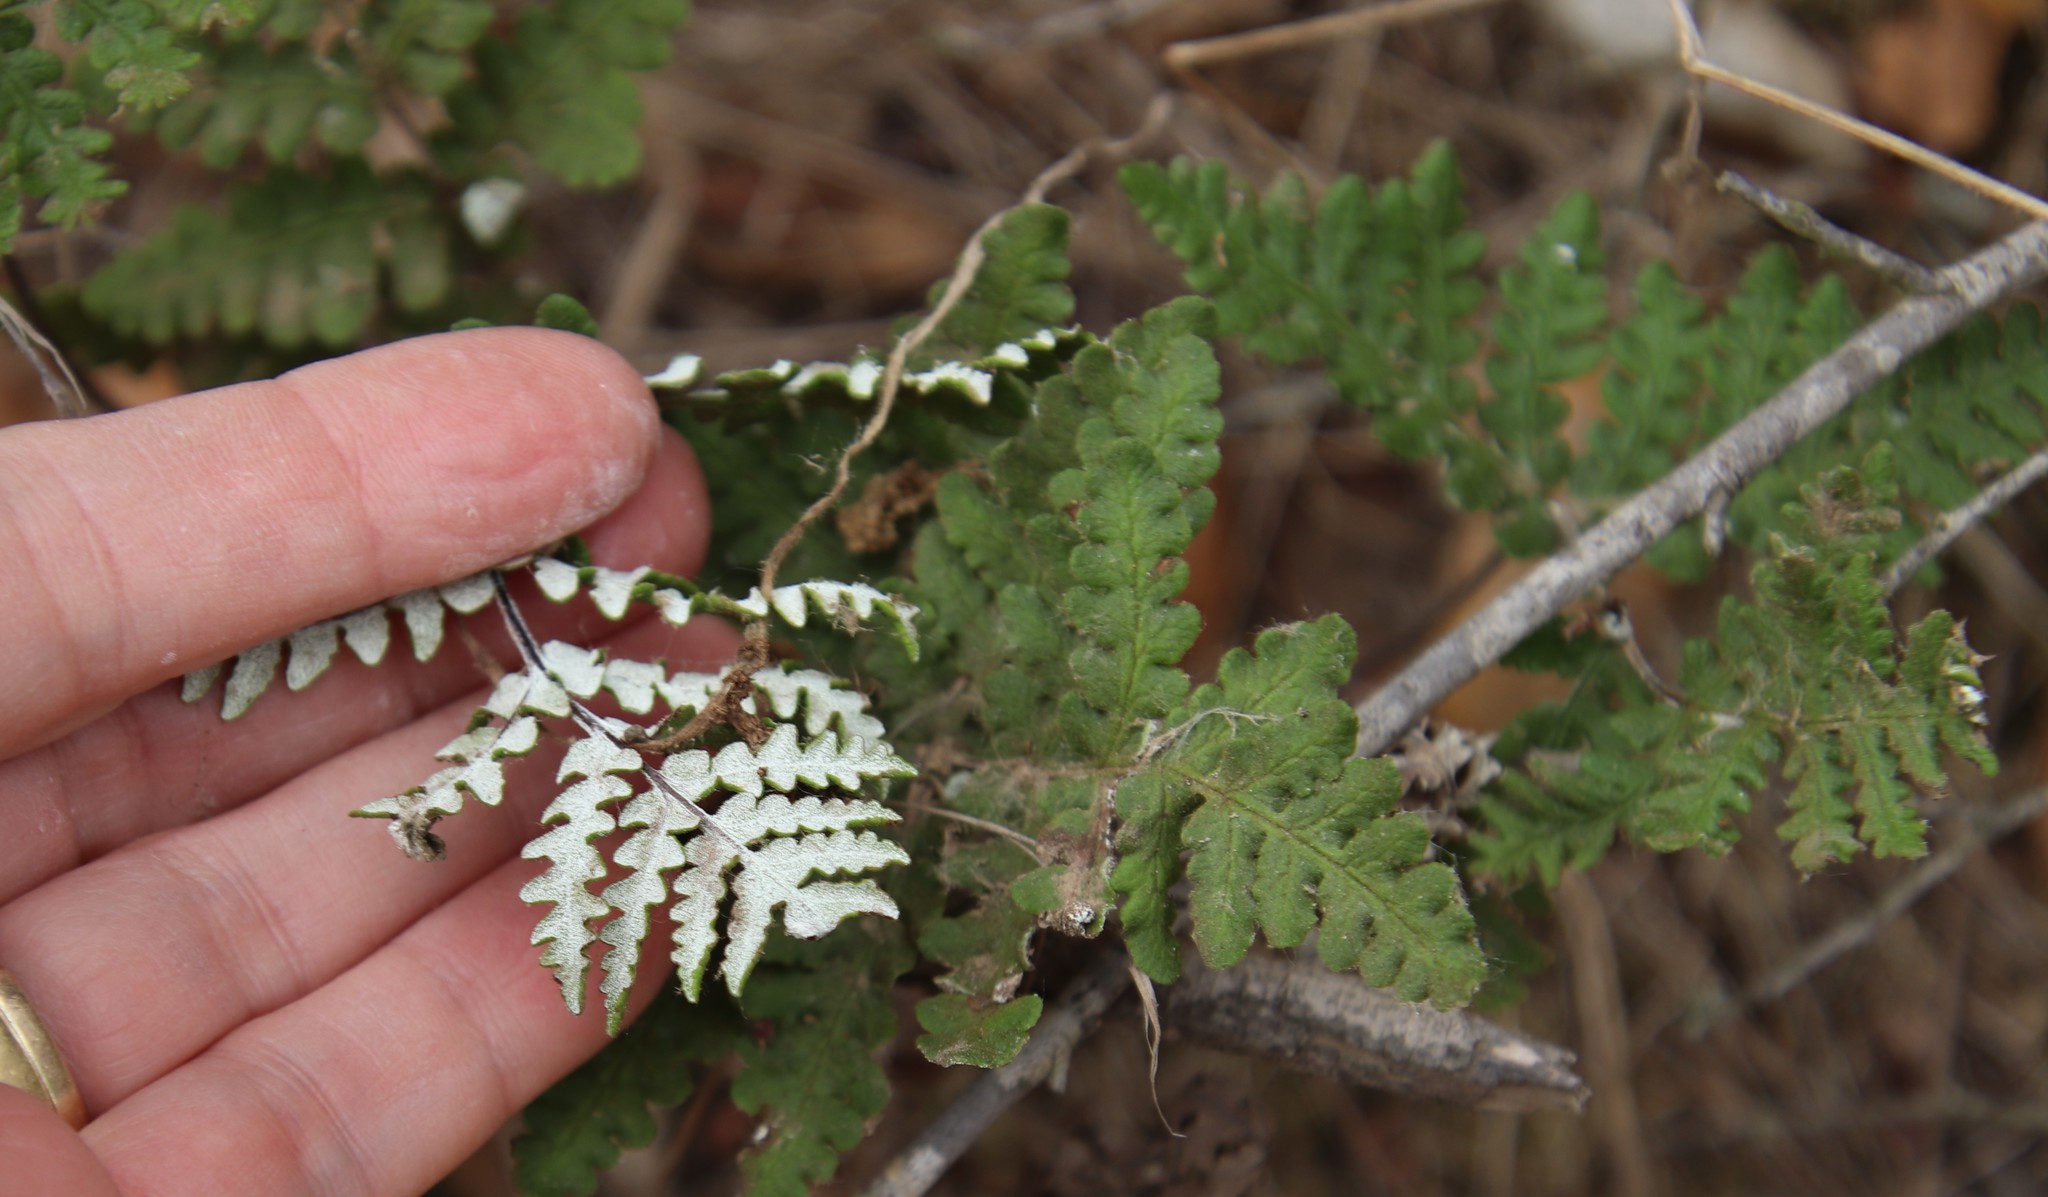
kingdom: Plantae
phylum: Tracheophyta
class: Polypodiopsida
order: Polypodiales
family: Pteridaceae
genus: Pentagramma
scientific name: Pentagramma glanduloviscida
